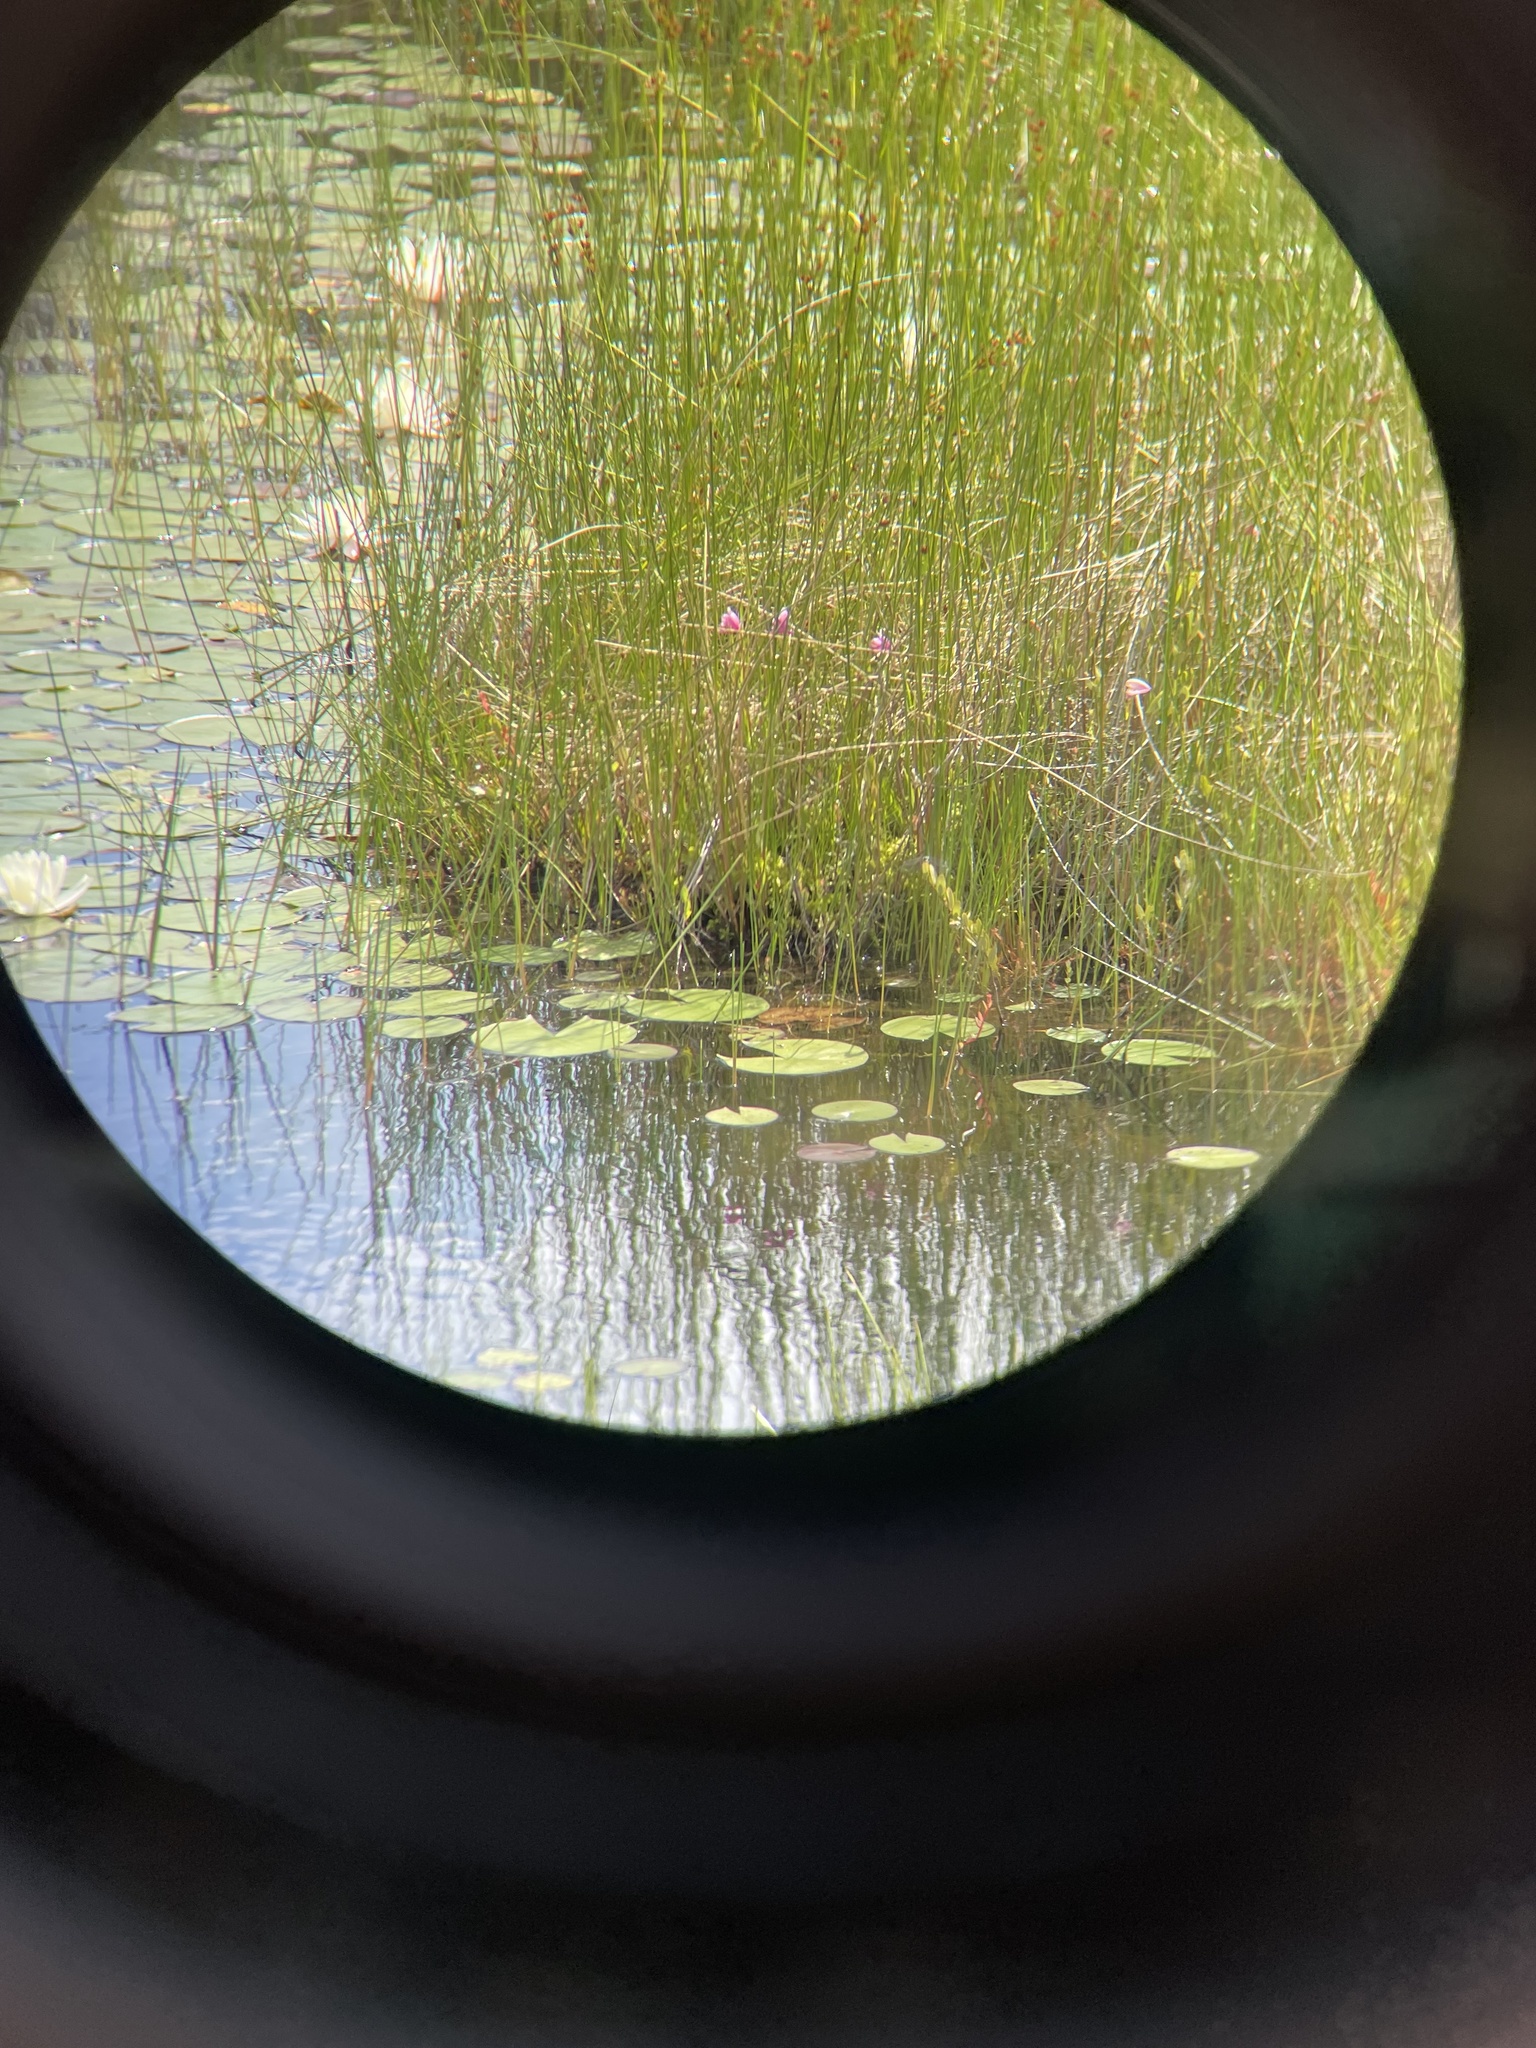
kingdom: Plantae
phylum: Tracheophyta
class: Liliopsida
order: Asparagales
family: Orchidaceae
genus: Pogonia
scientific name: Pogonia ophioglossoides
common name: Rose pogonia
